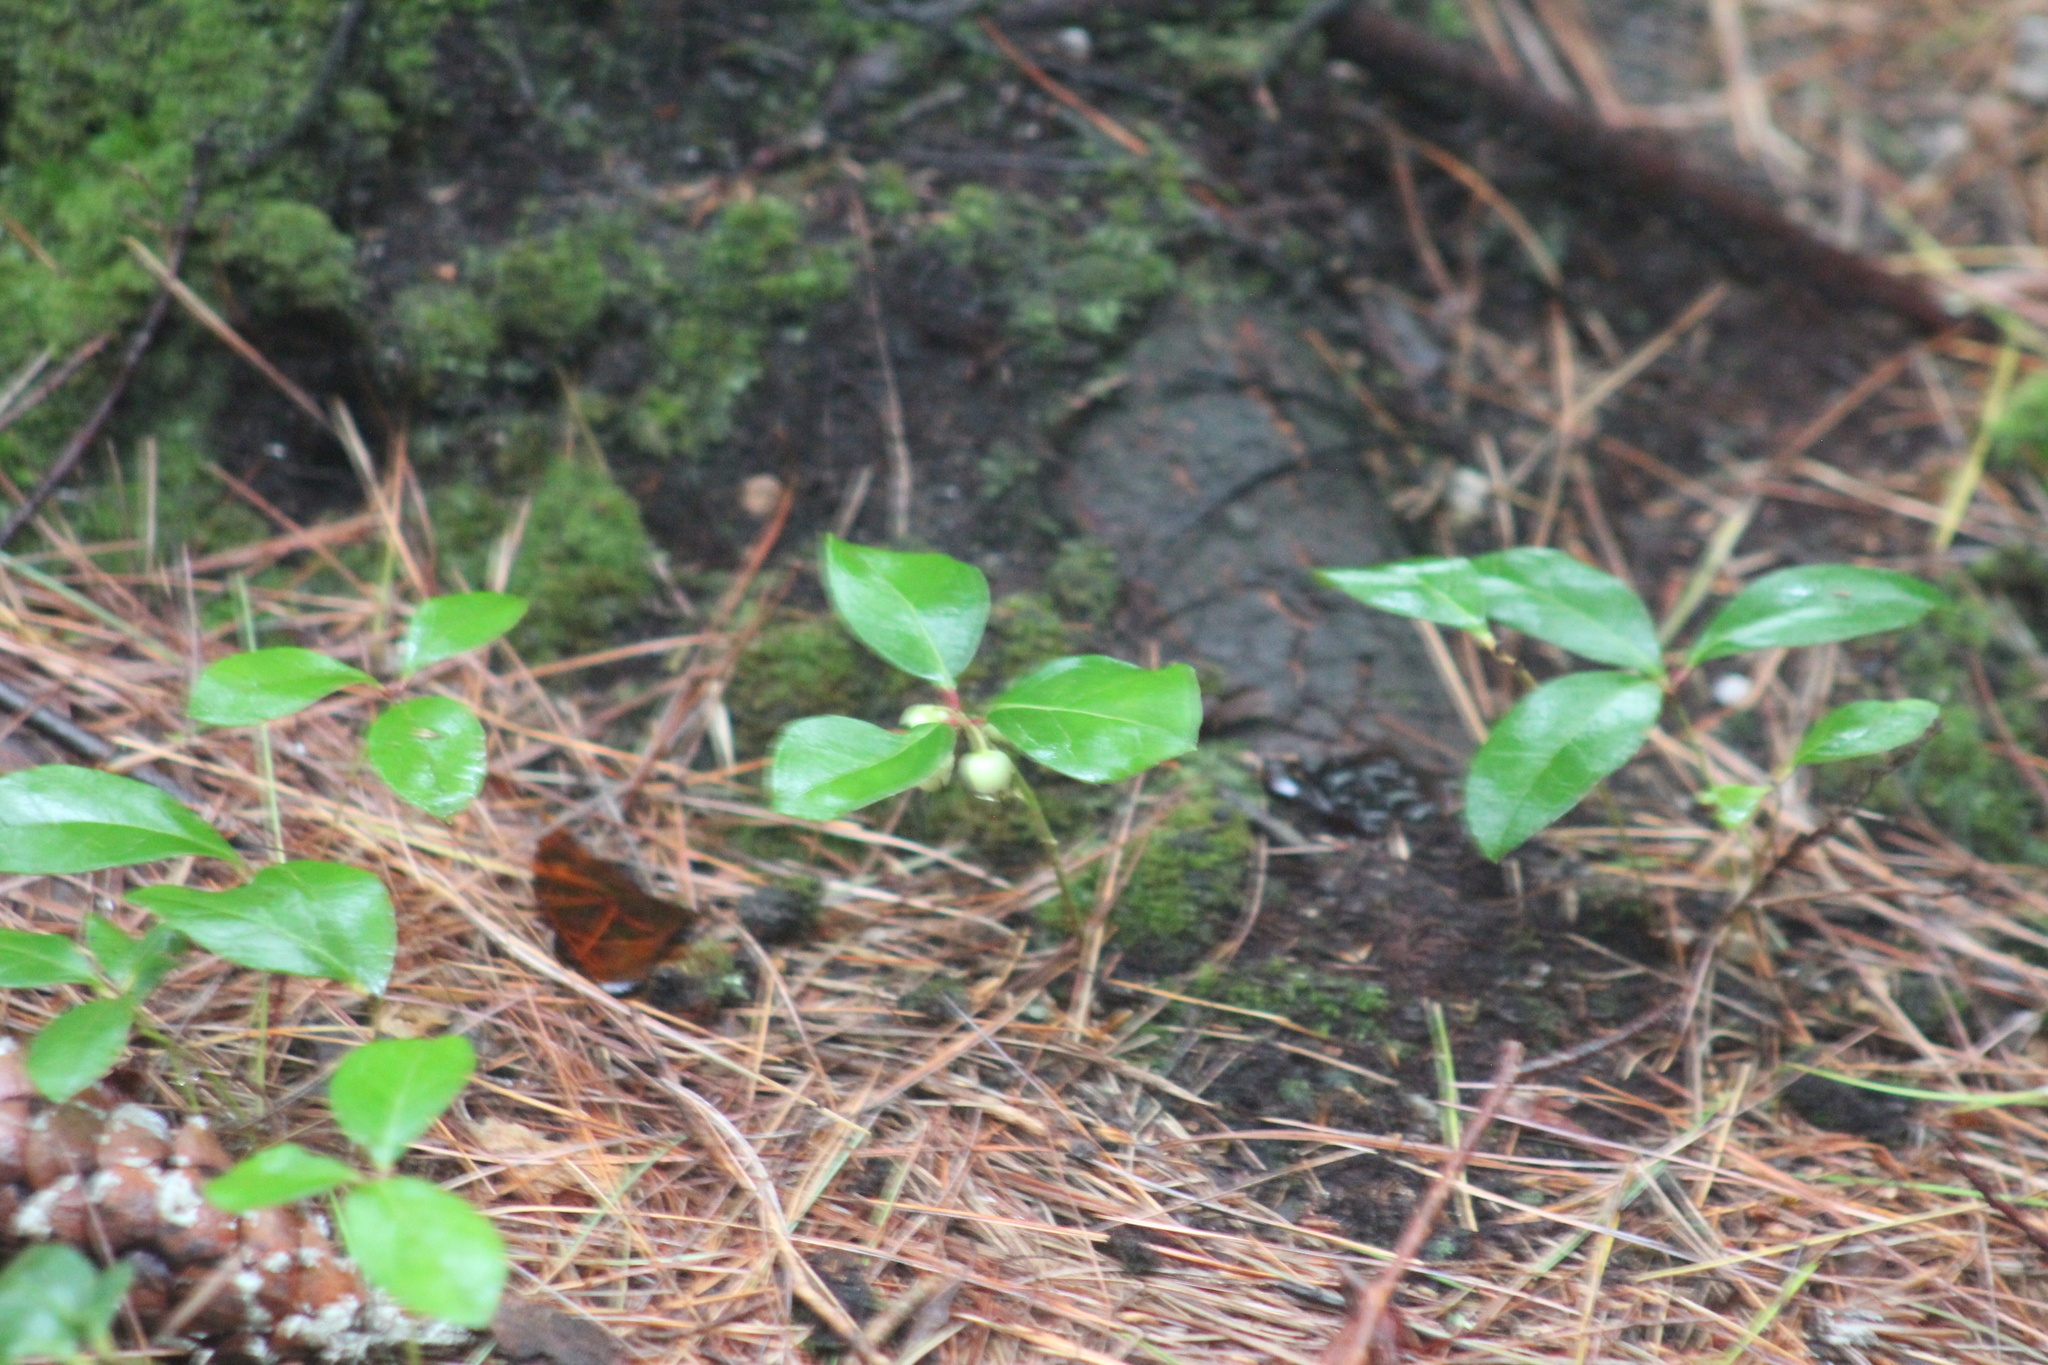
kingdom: Plantae
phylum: Tracheophyta
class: Magnoliopsida
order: Ericales
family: Ericaceae
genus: Gaultheria
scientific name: Gaultheria procumbens
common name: Checkerberry
